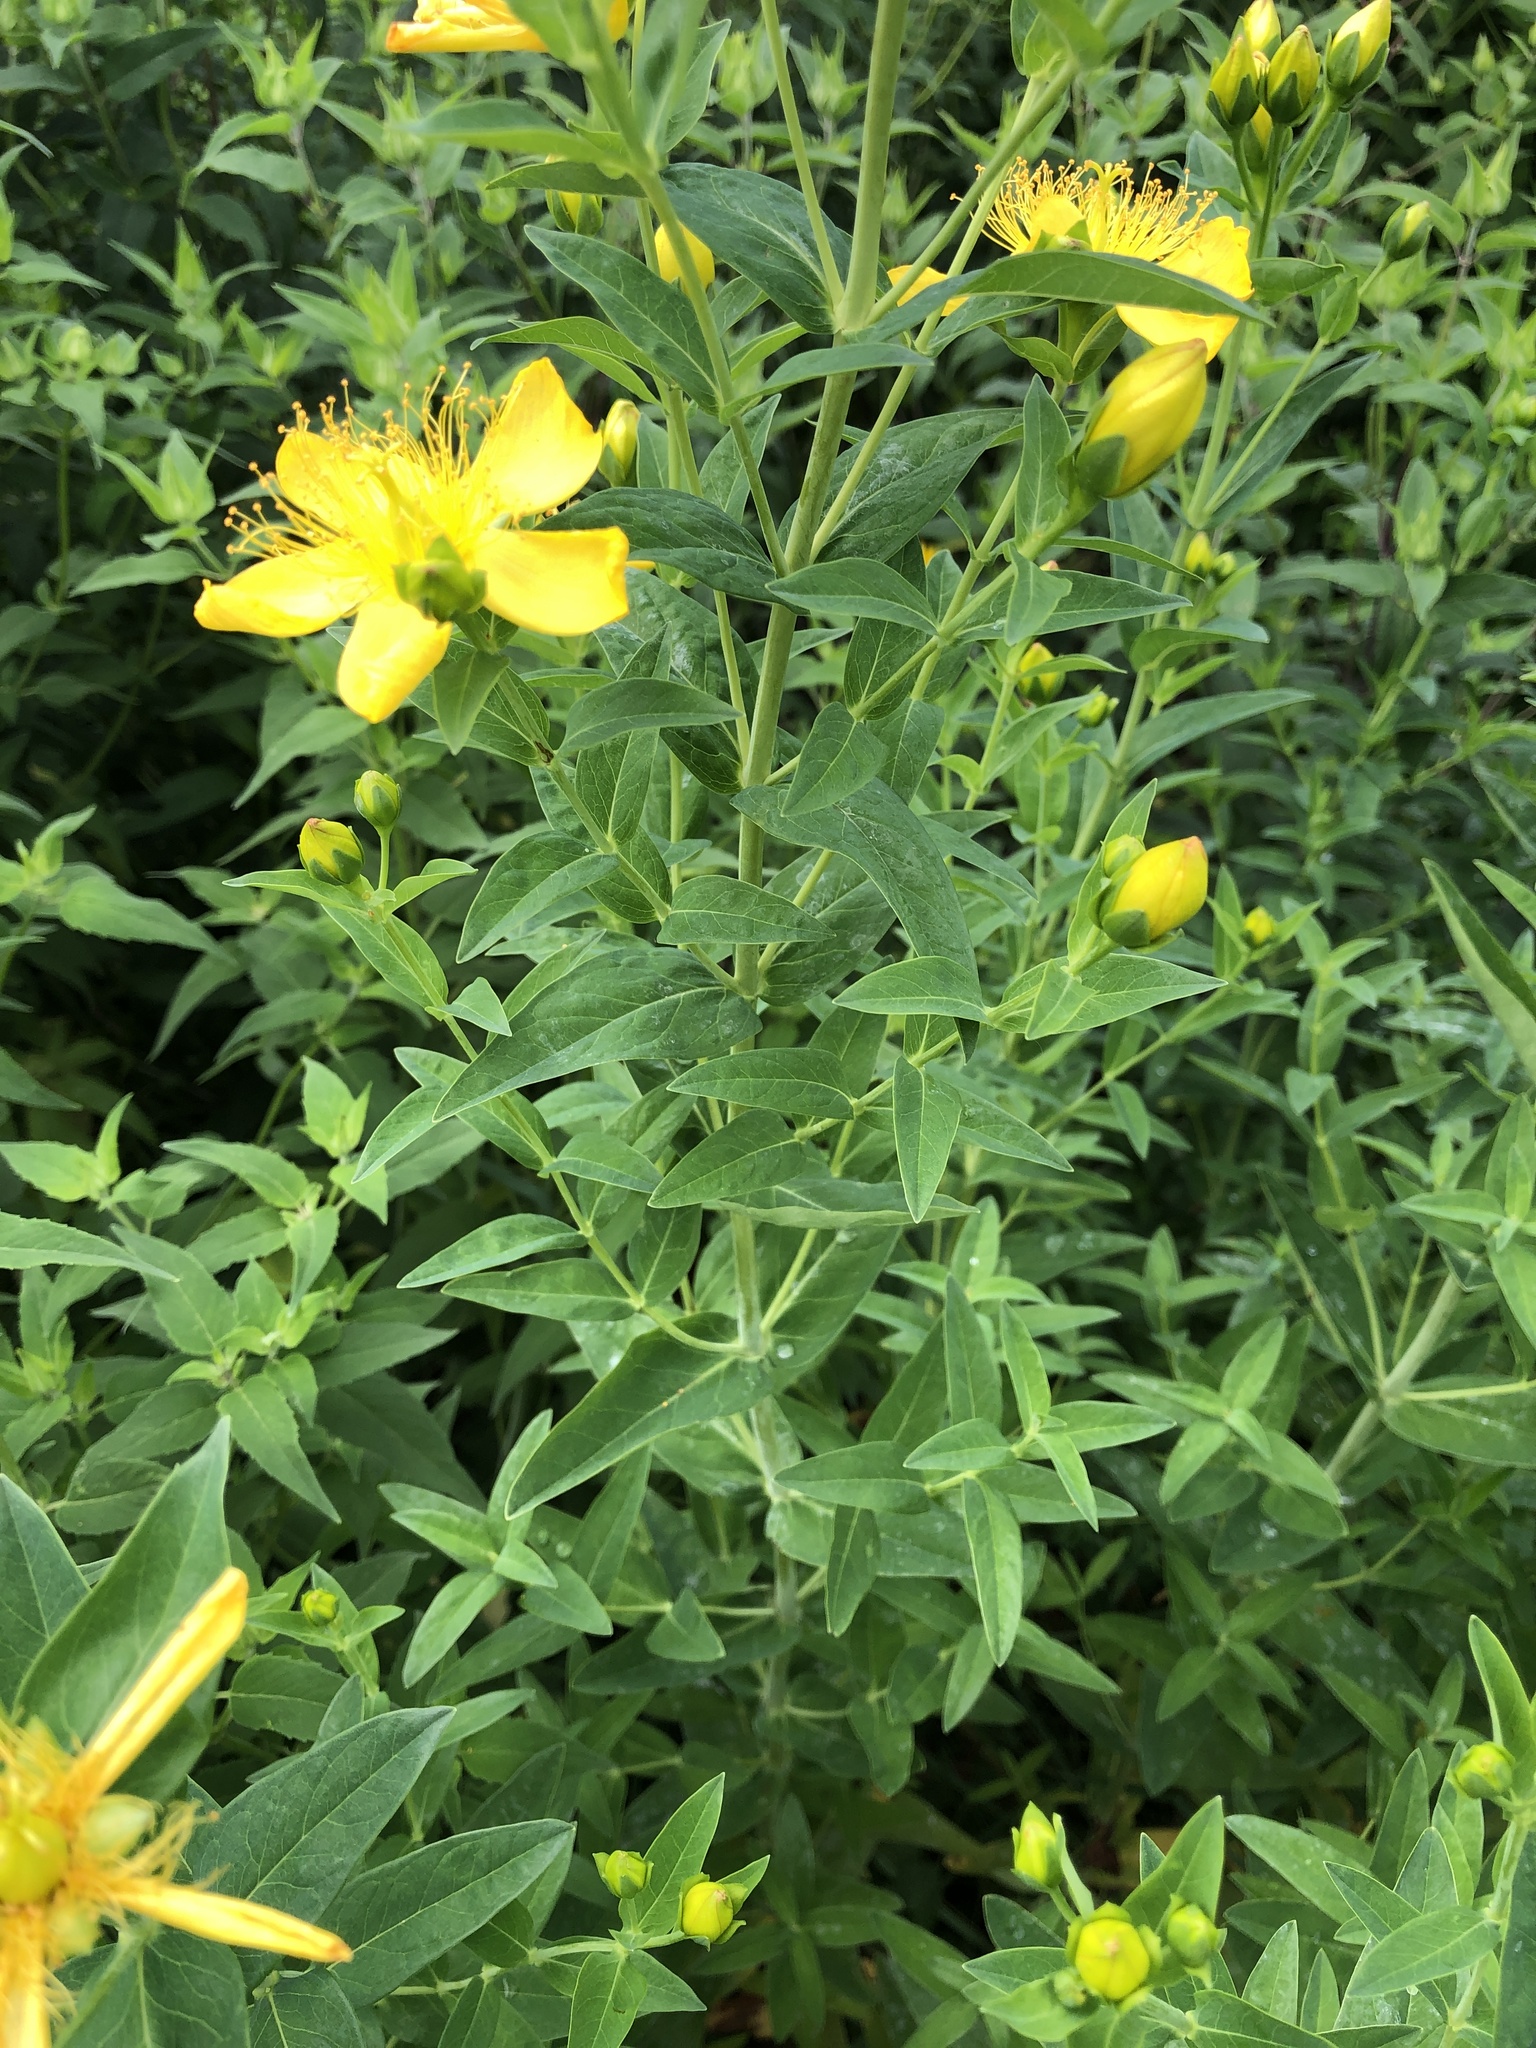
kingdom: Plantae
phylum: Tracheophyta
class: Magnoliopsida
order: Malpighiales
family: Hypericaceae
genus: Hypericum
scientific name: Hypericum ascyron
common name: Giant st. john's-wort
